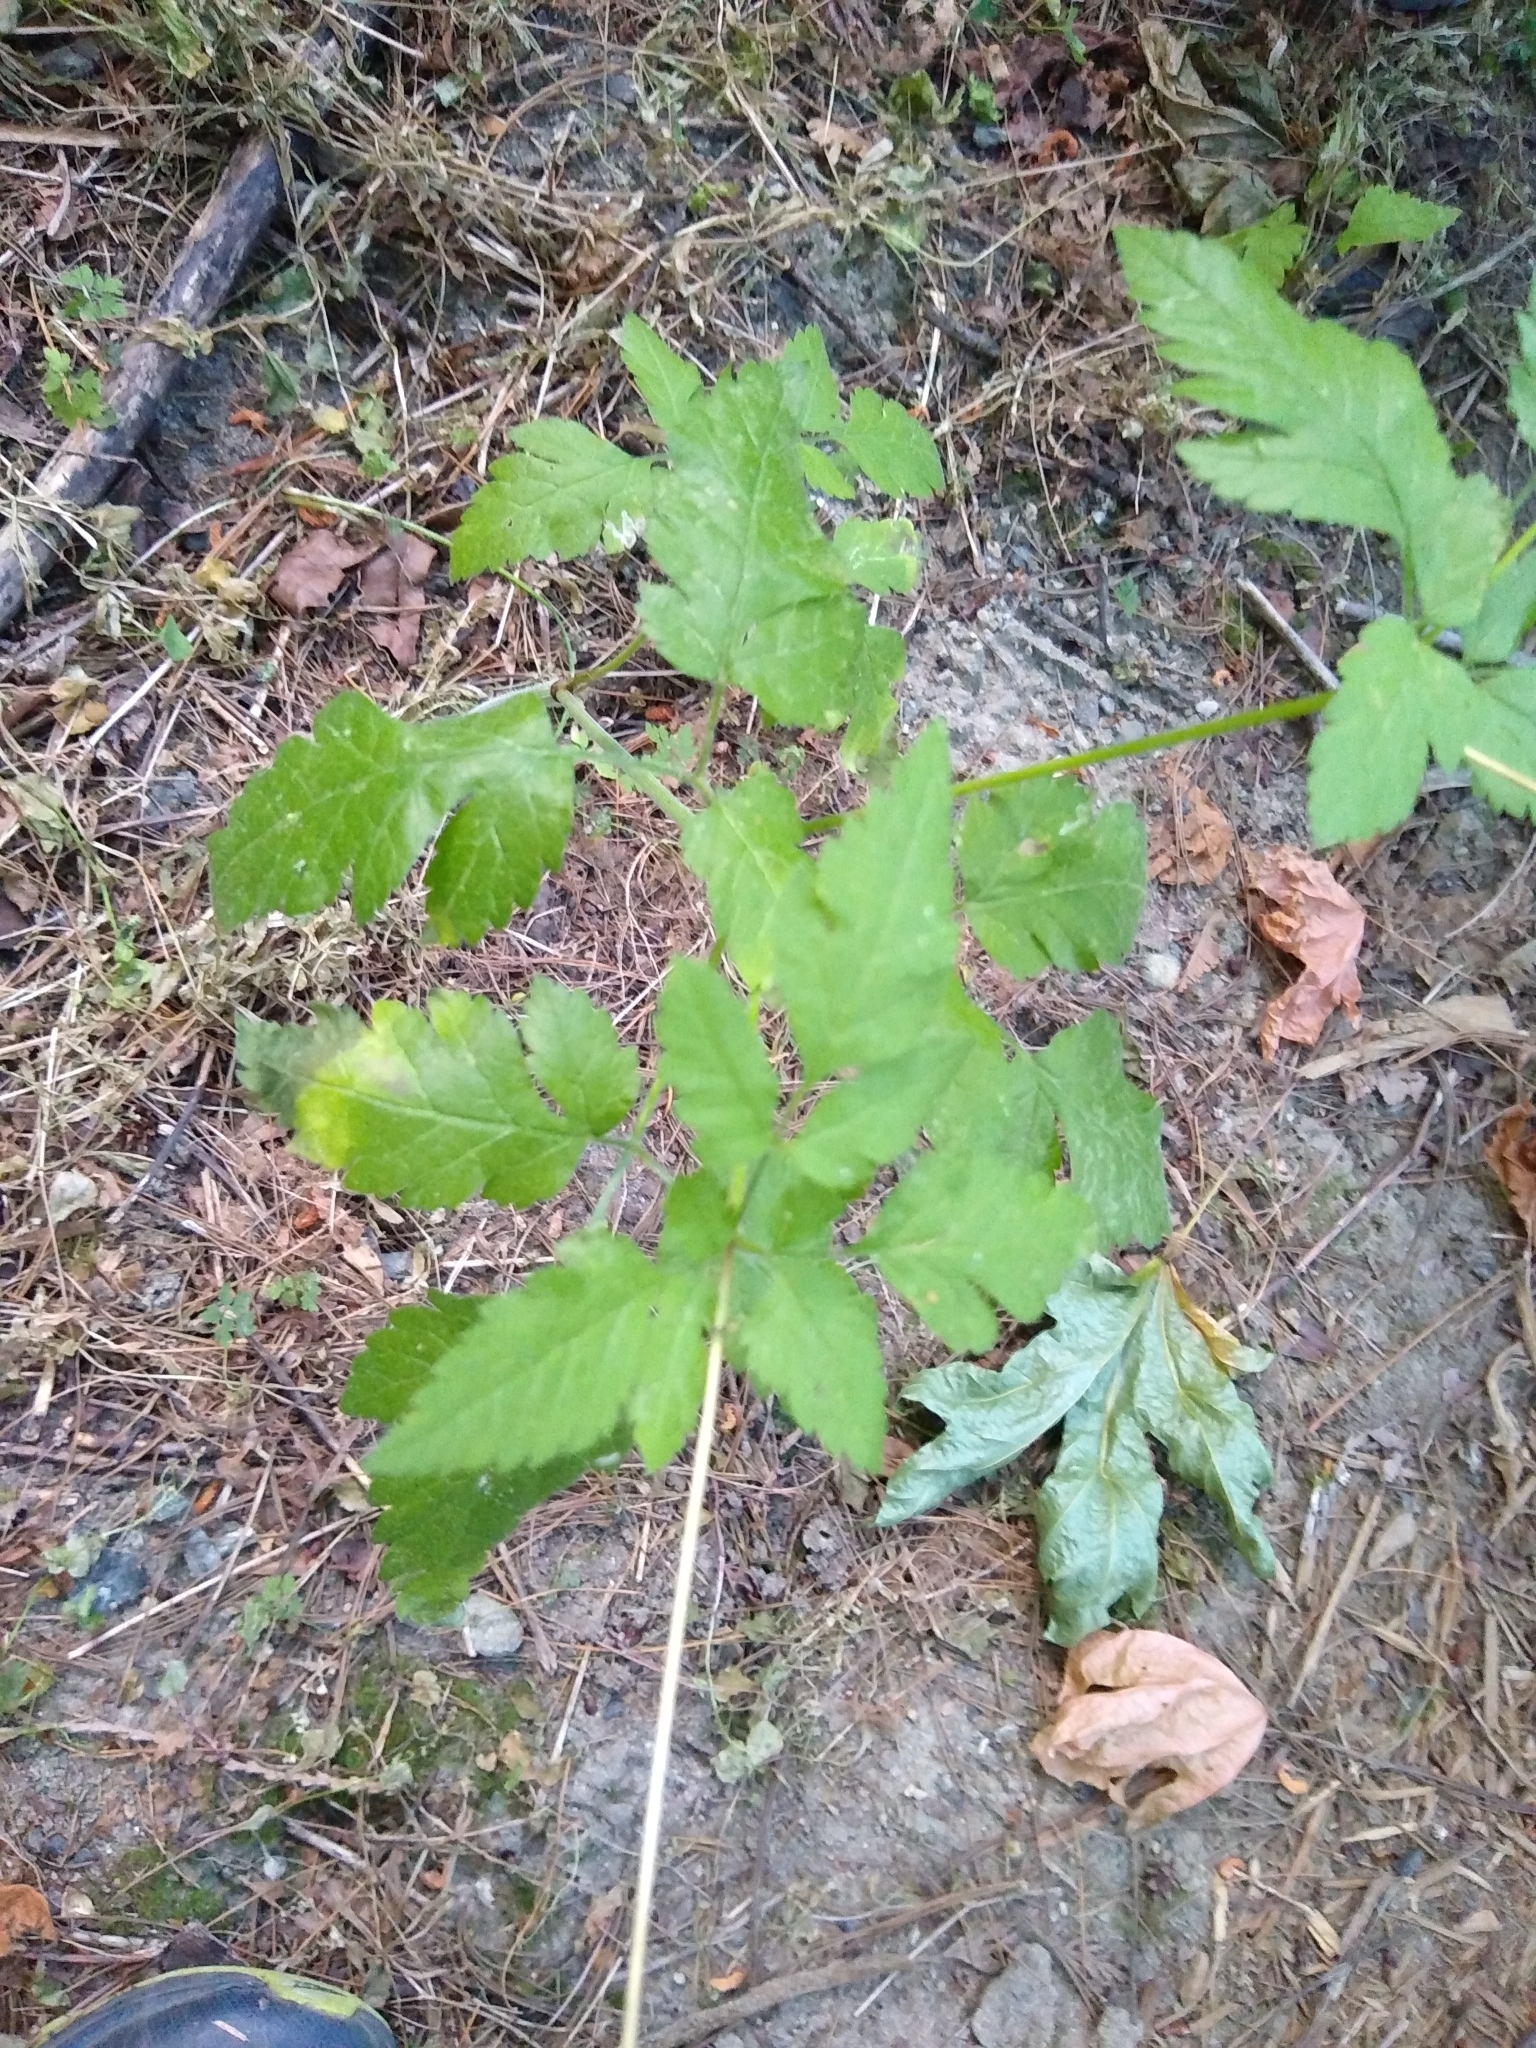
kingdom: Plantae
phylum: Tracheophyta
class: Magnoliopsida
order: Apiales
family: Apiaceae
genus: Osmorhiza
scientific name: Osmorhiza berteroi
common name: Mountain sweet cicely
